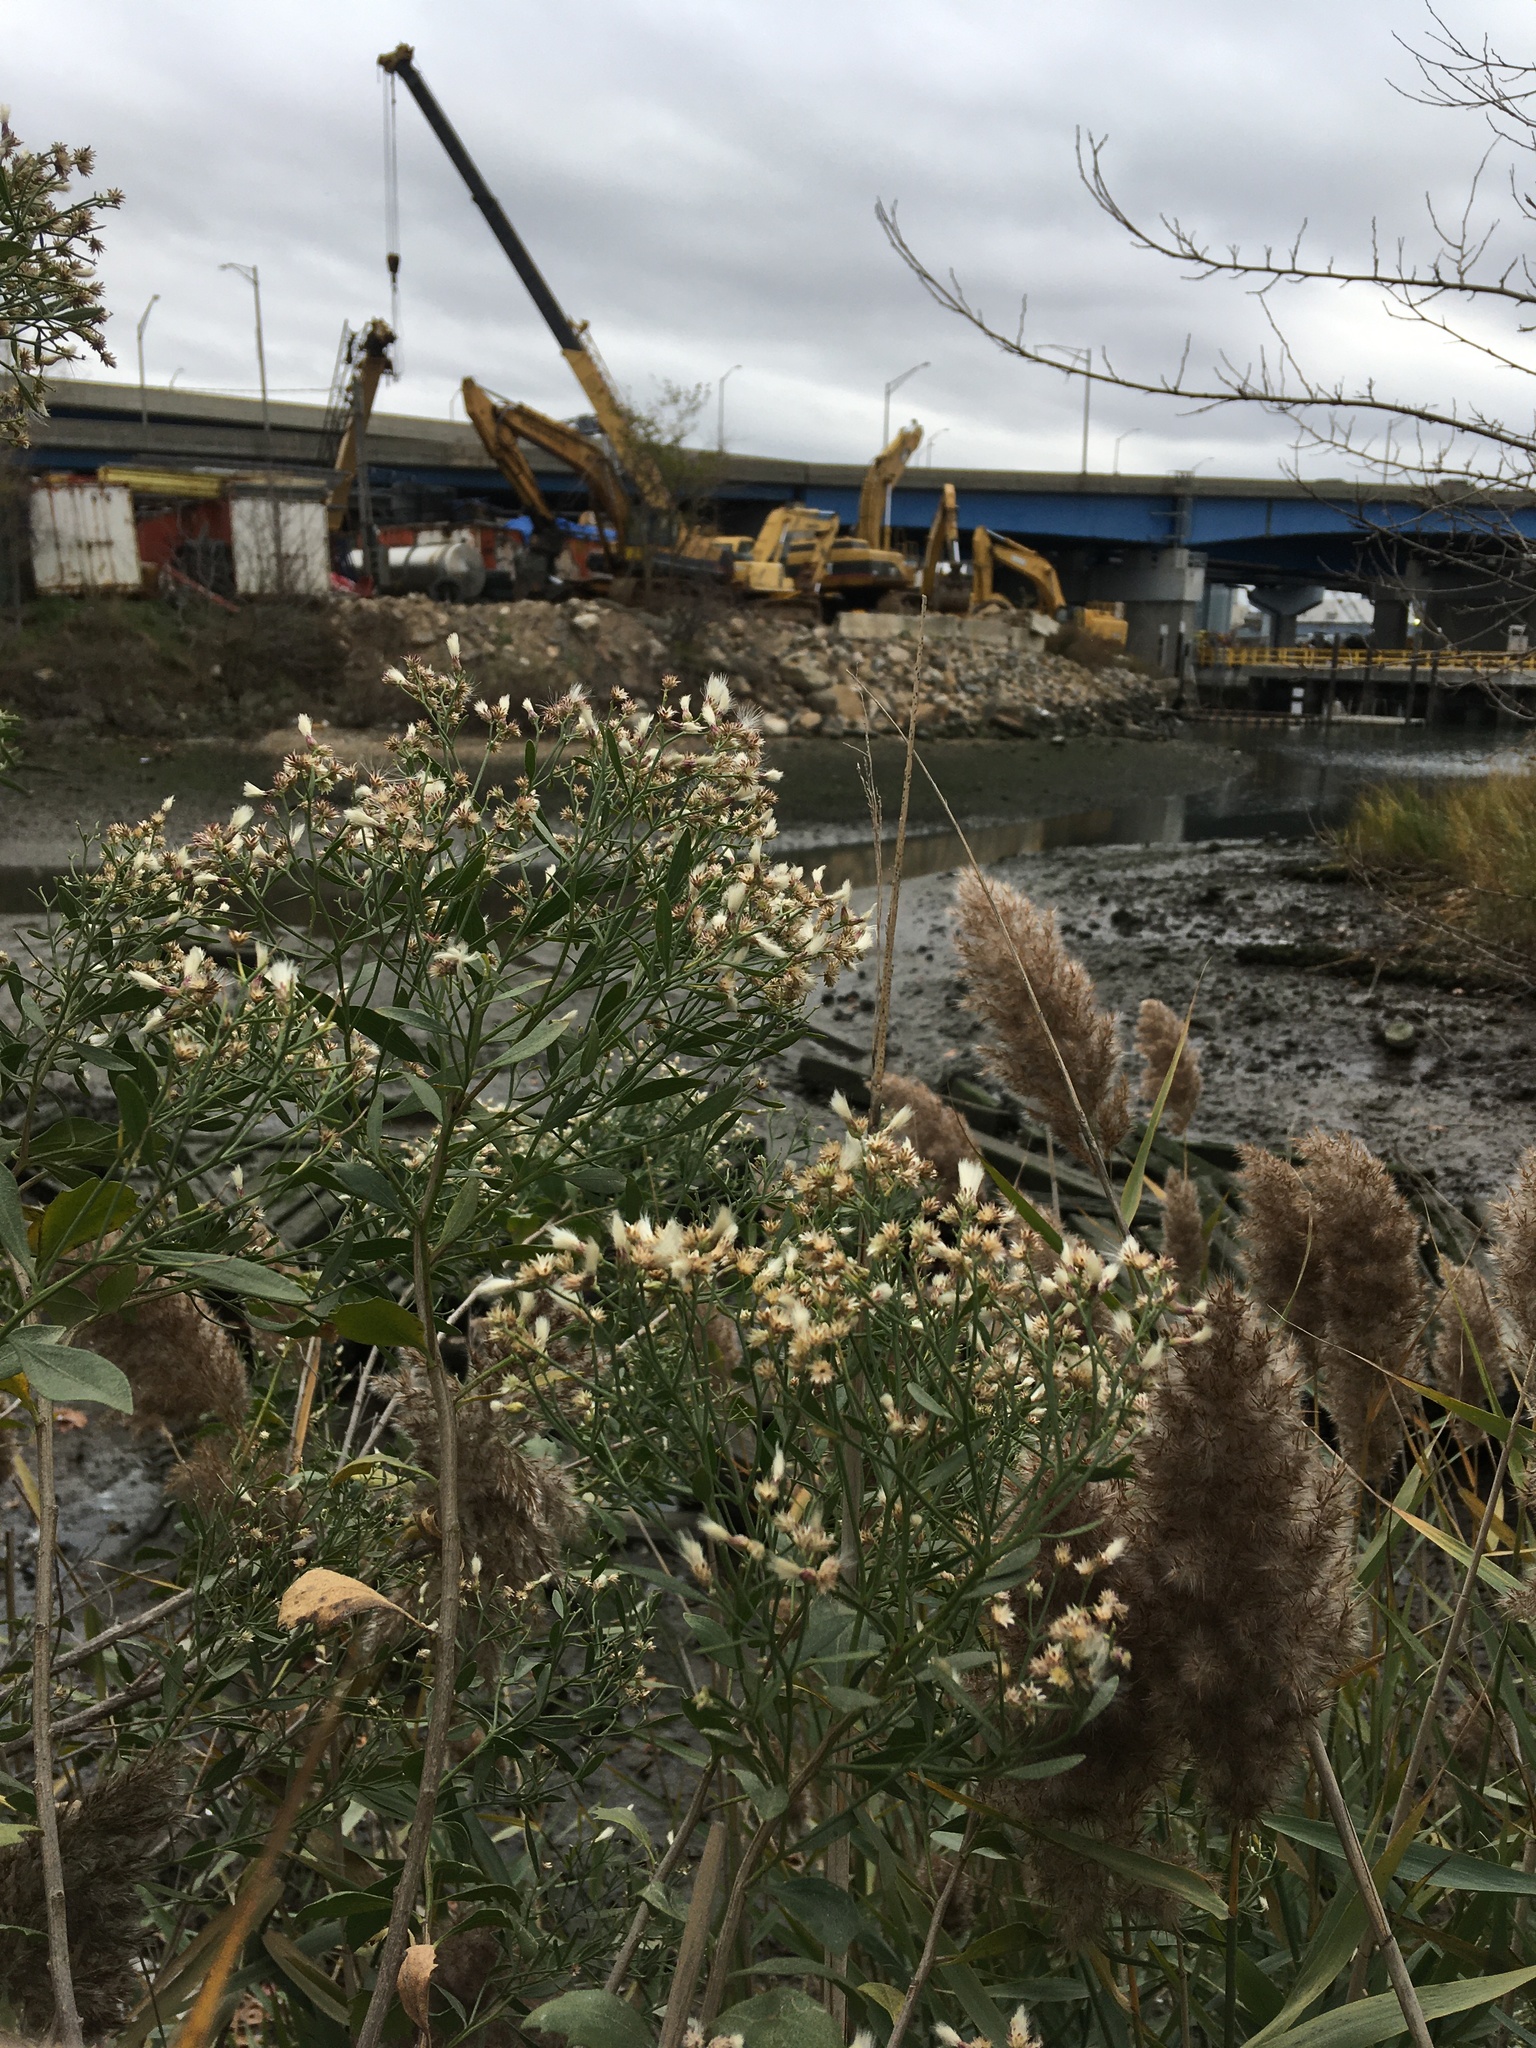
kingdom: Plantae
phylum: Tracheophyta
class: Magnoliopsida
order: Asterales
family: Asteraceae
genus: Baccharis
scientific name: Baccharis halimifolia
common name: Eastern baccharis
